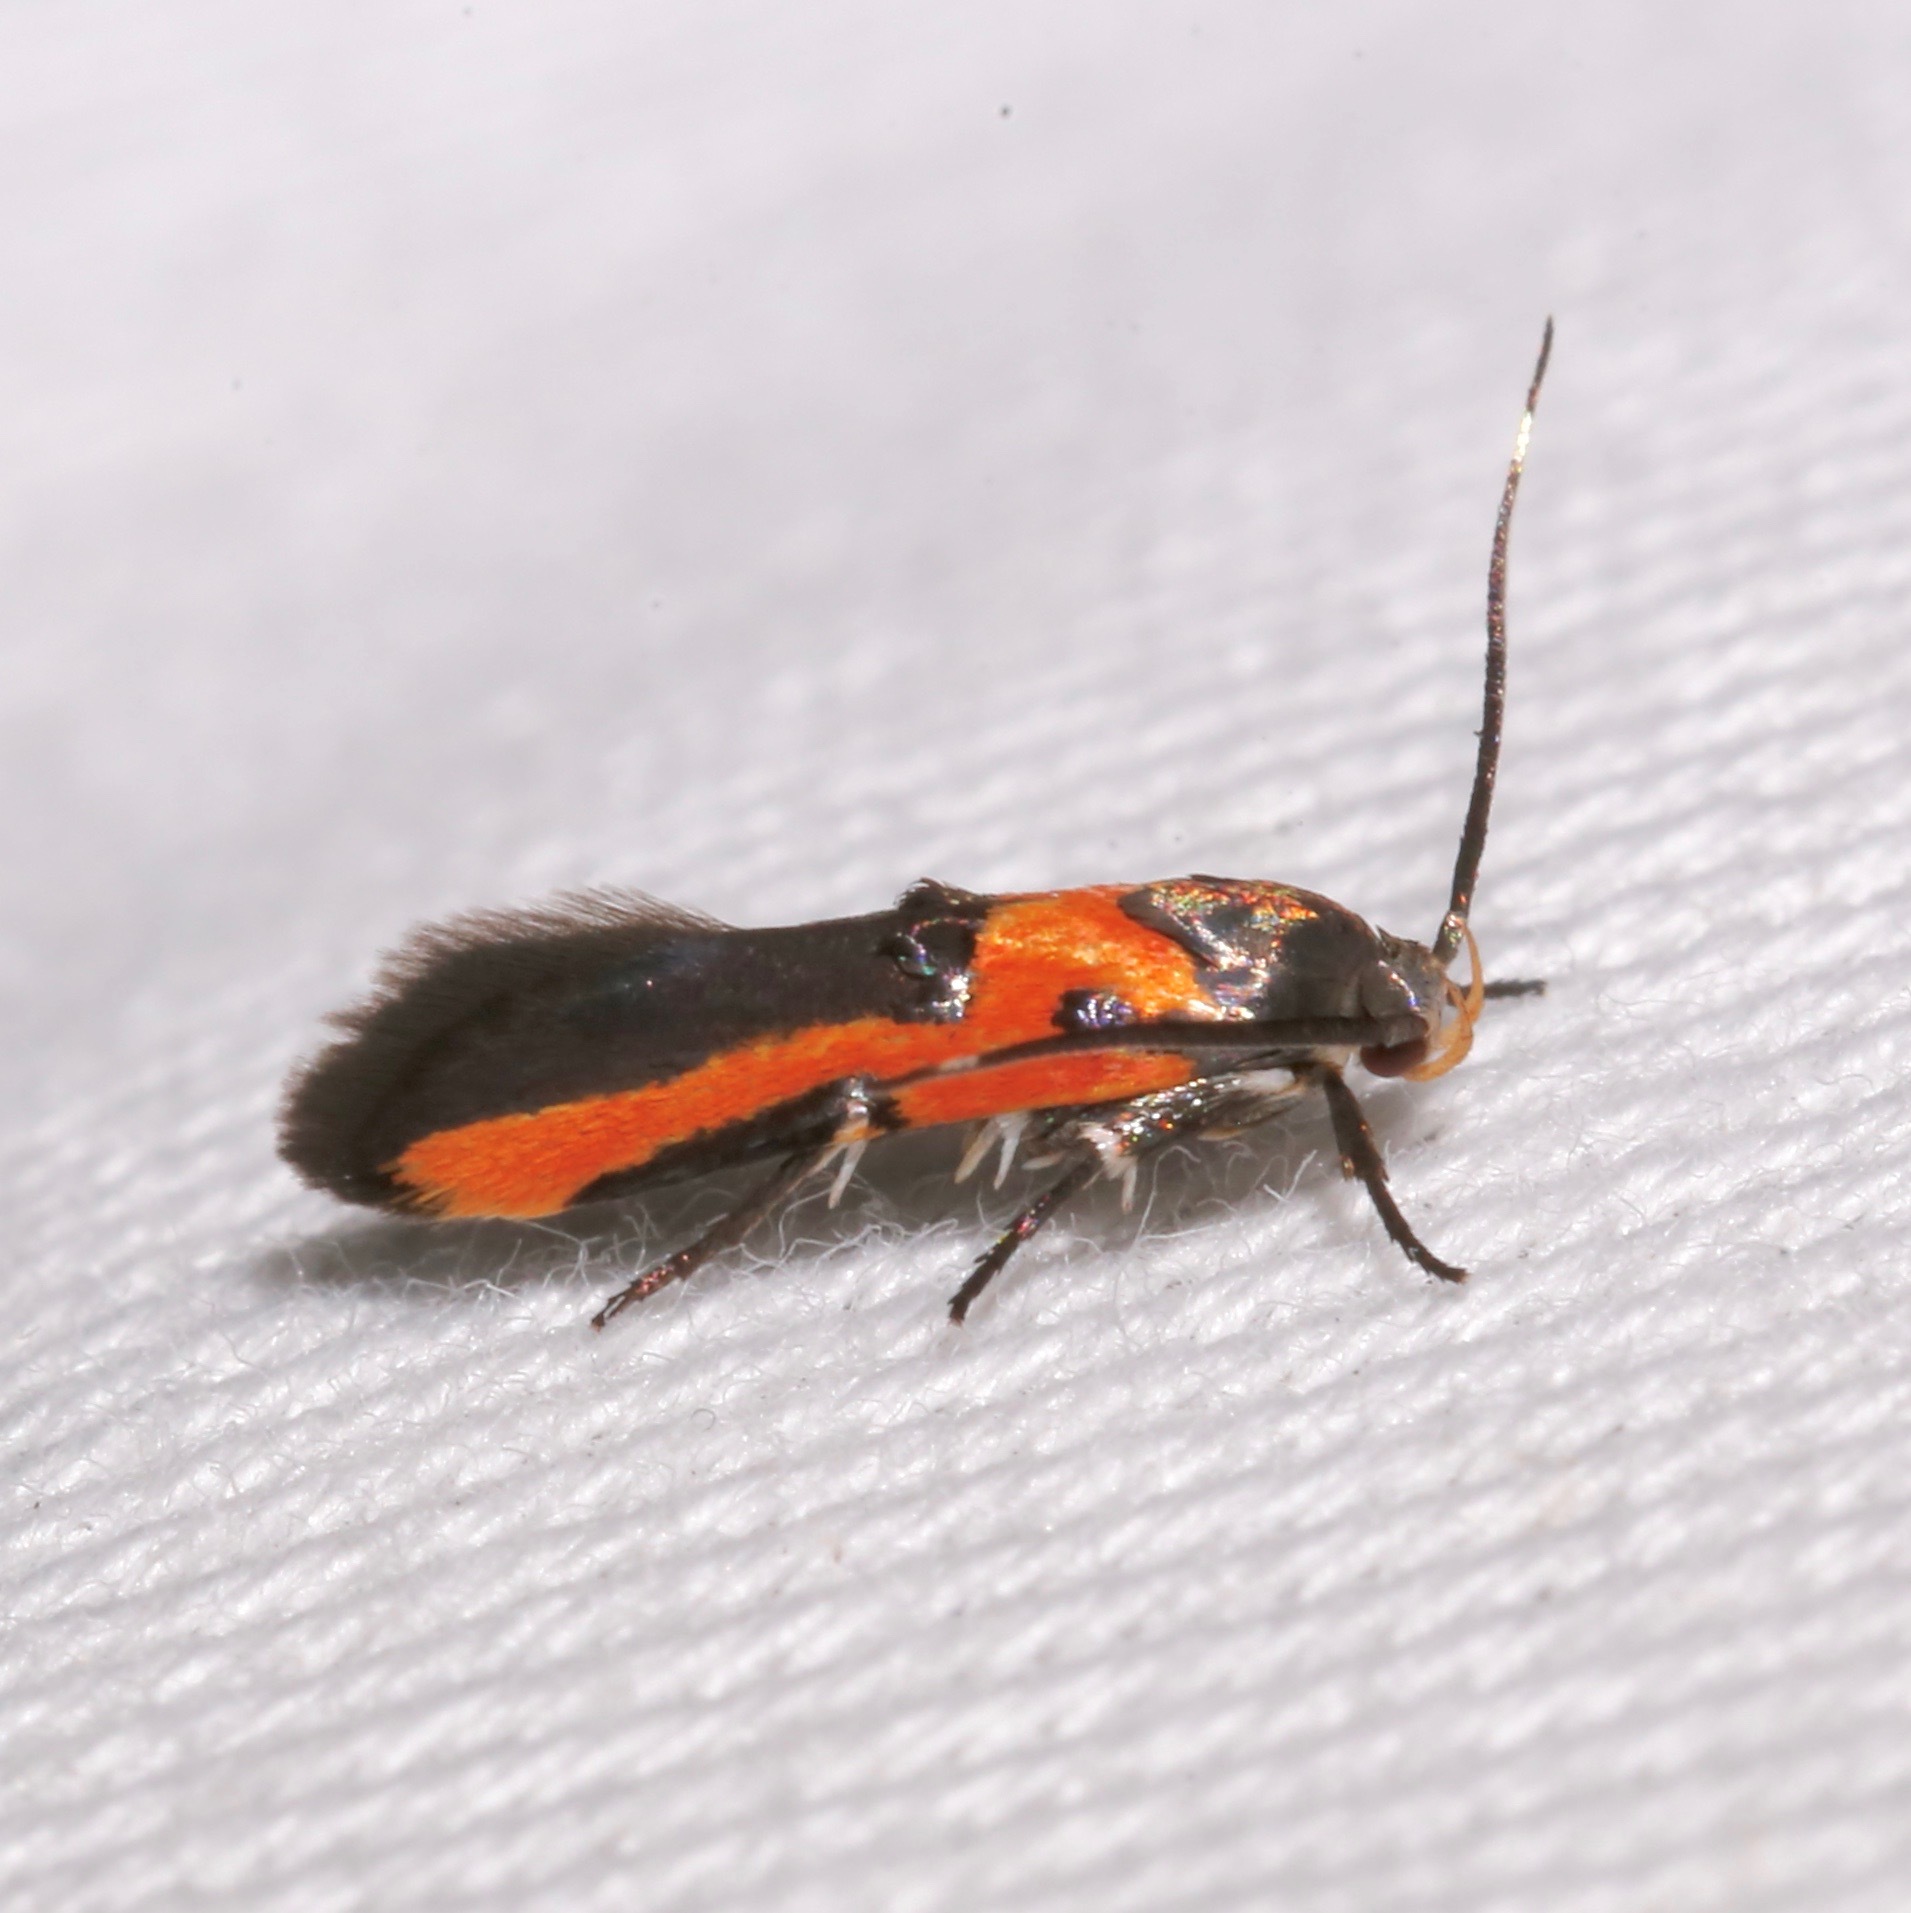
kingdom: Animalia
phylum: Arthropoda
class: Insecta
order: Lepidoptera
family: Cosmopterigidae
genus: Euclemensia
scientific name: Euclemensia bassettella
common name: Kermes scale moth
